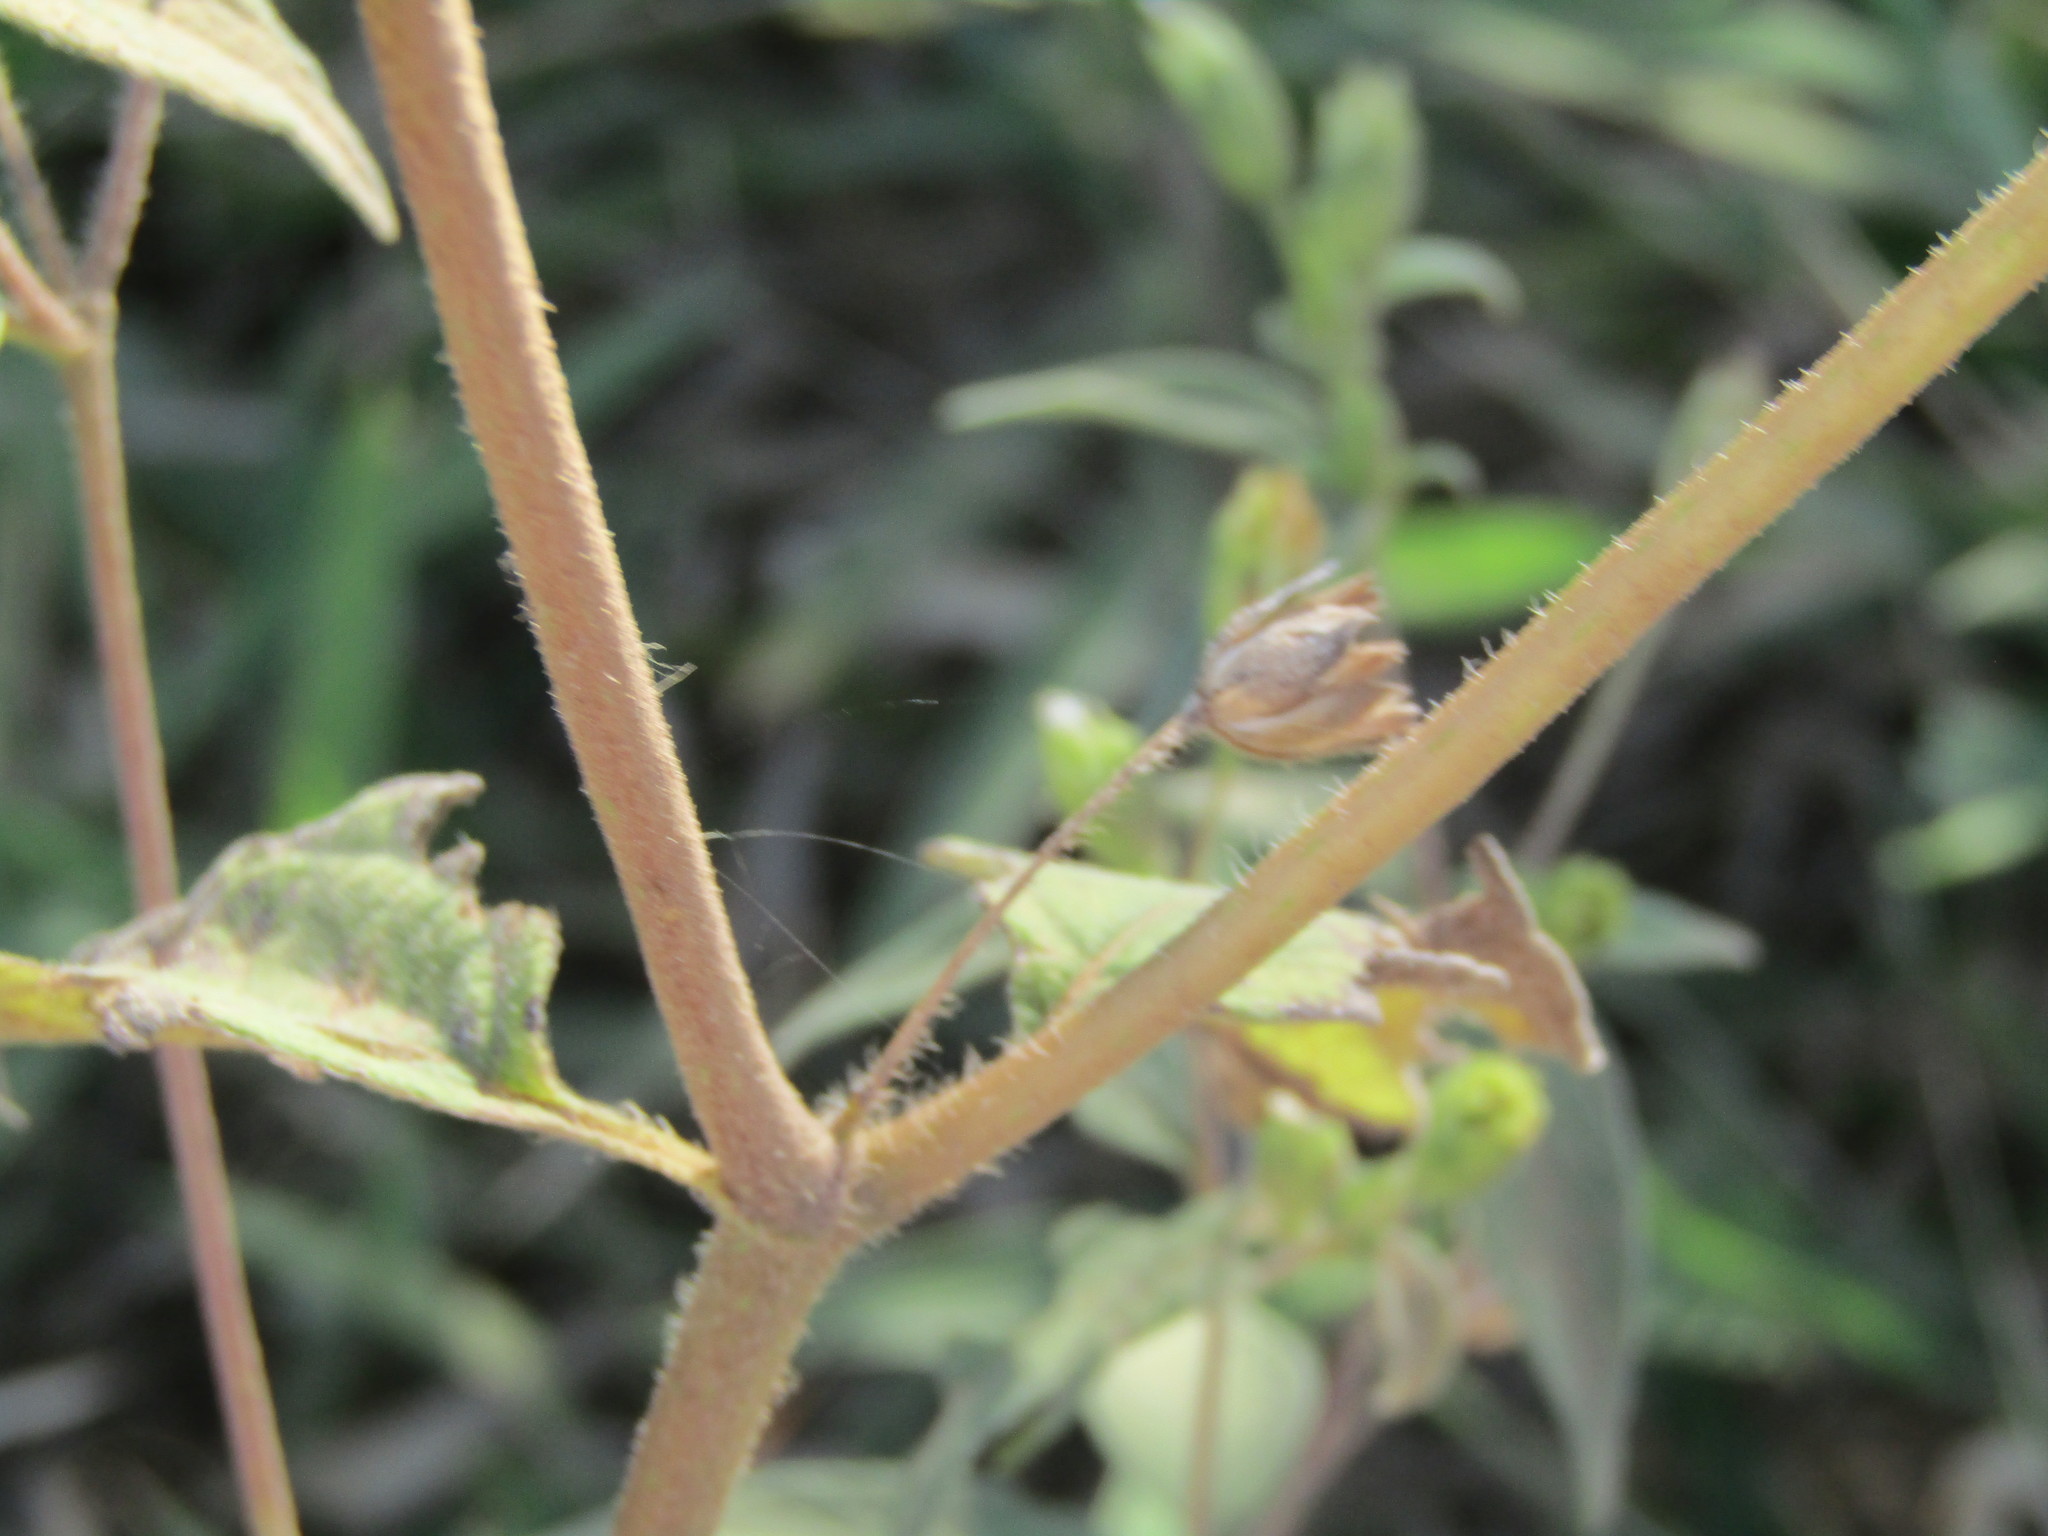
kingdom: Plantae
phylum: Tracheophyta
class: Magnoliopsida
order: Asterales
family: Asteraceae
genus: Blainvillea
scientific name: Blainvillea gayana
